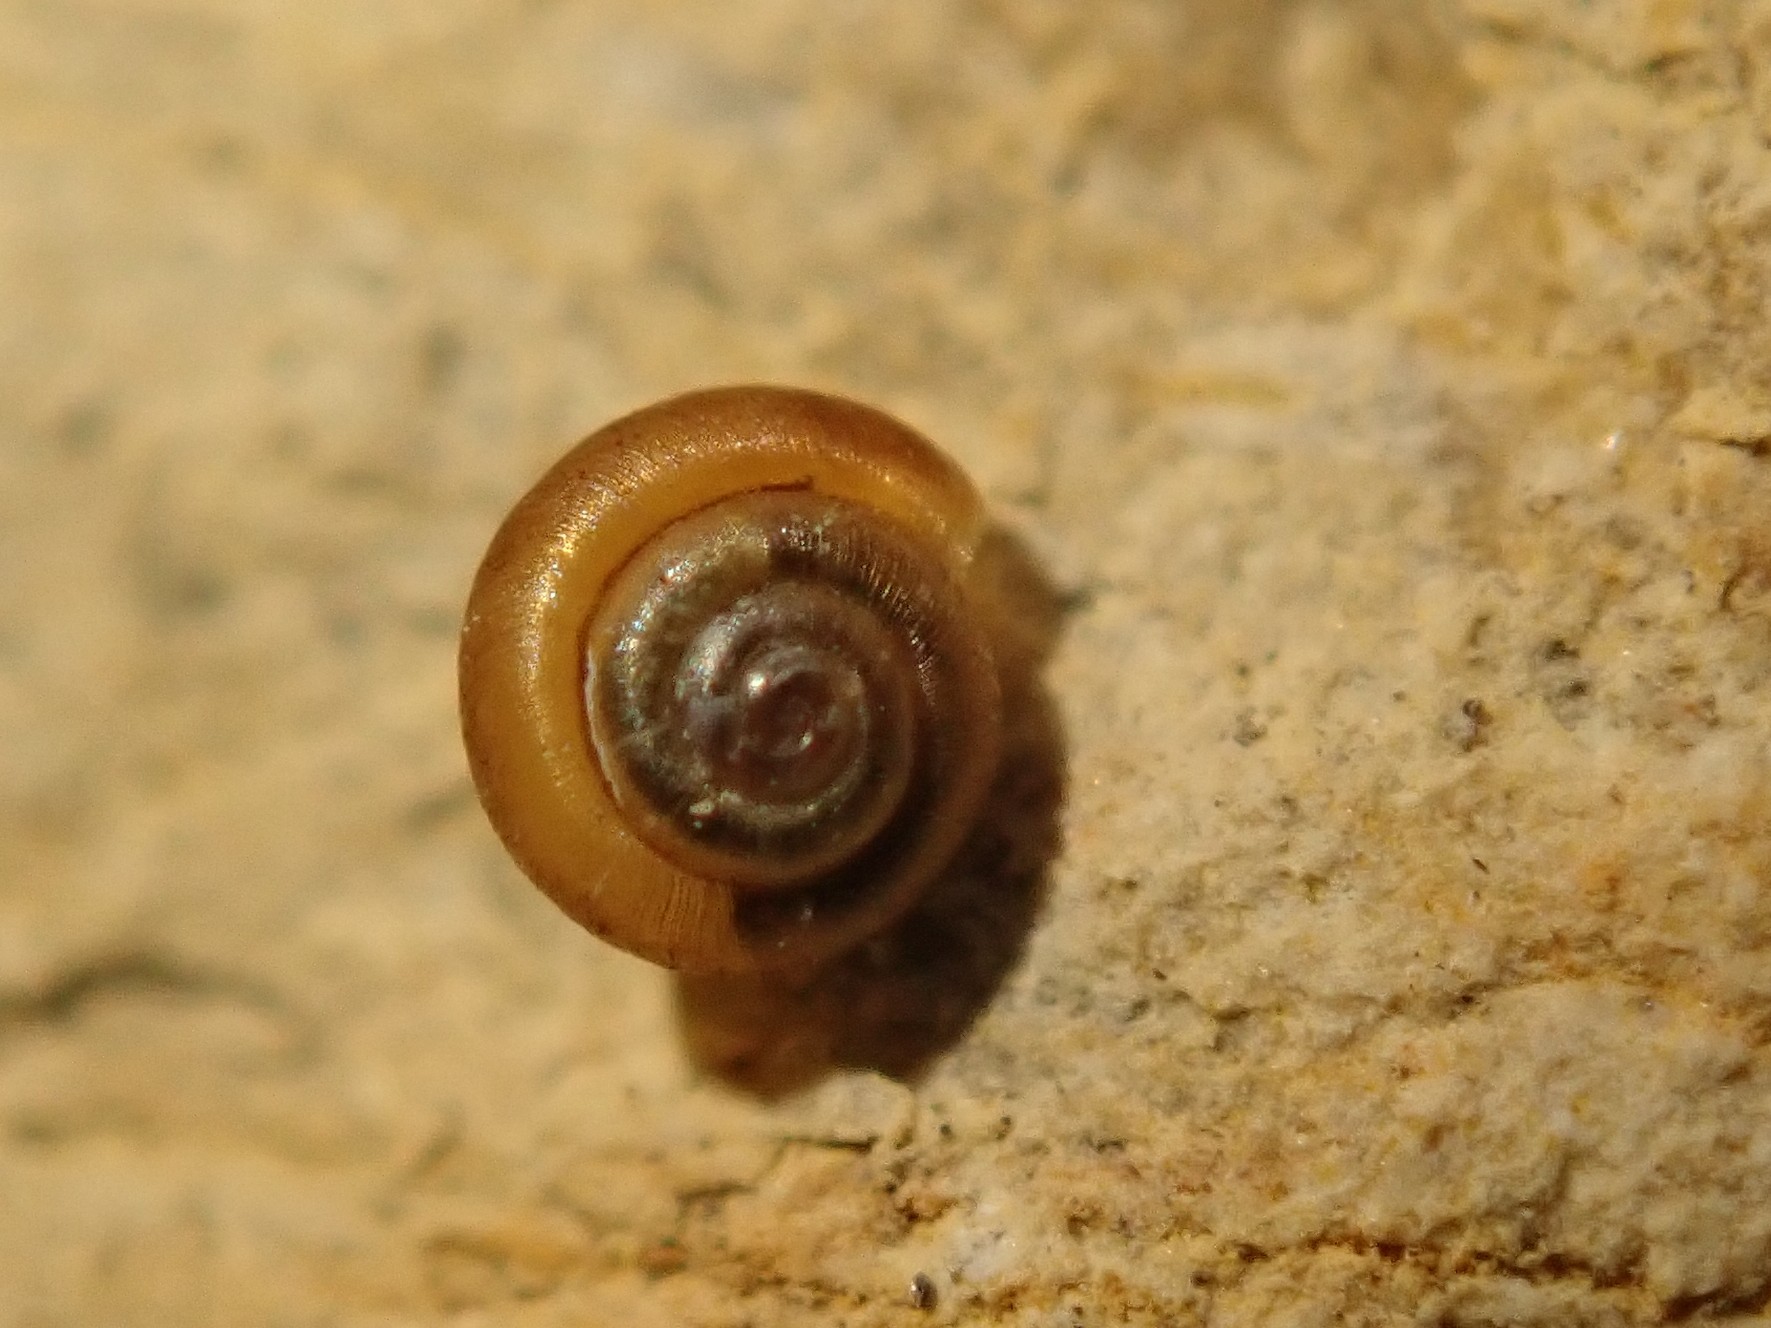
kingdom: Animalia
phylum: Mollusca
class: Gastropoda
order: Stylommatophora
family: Punctidae
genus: Punctum
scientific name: Punctum pygmaeum
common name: Dwarf snail
